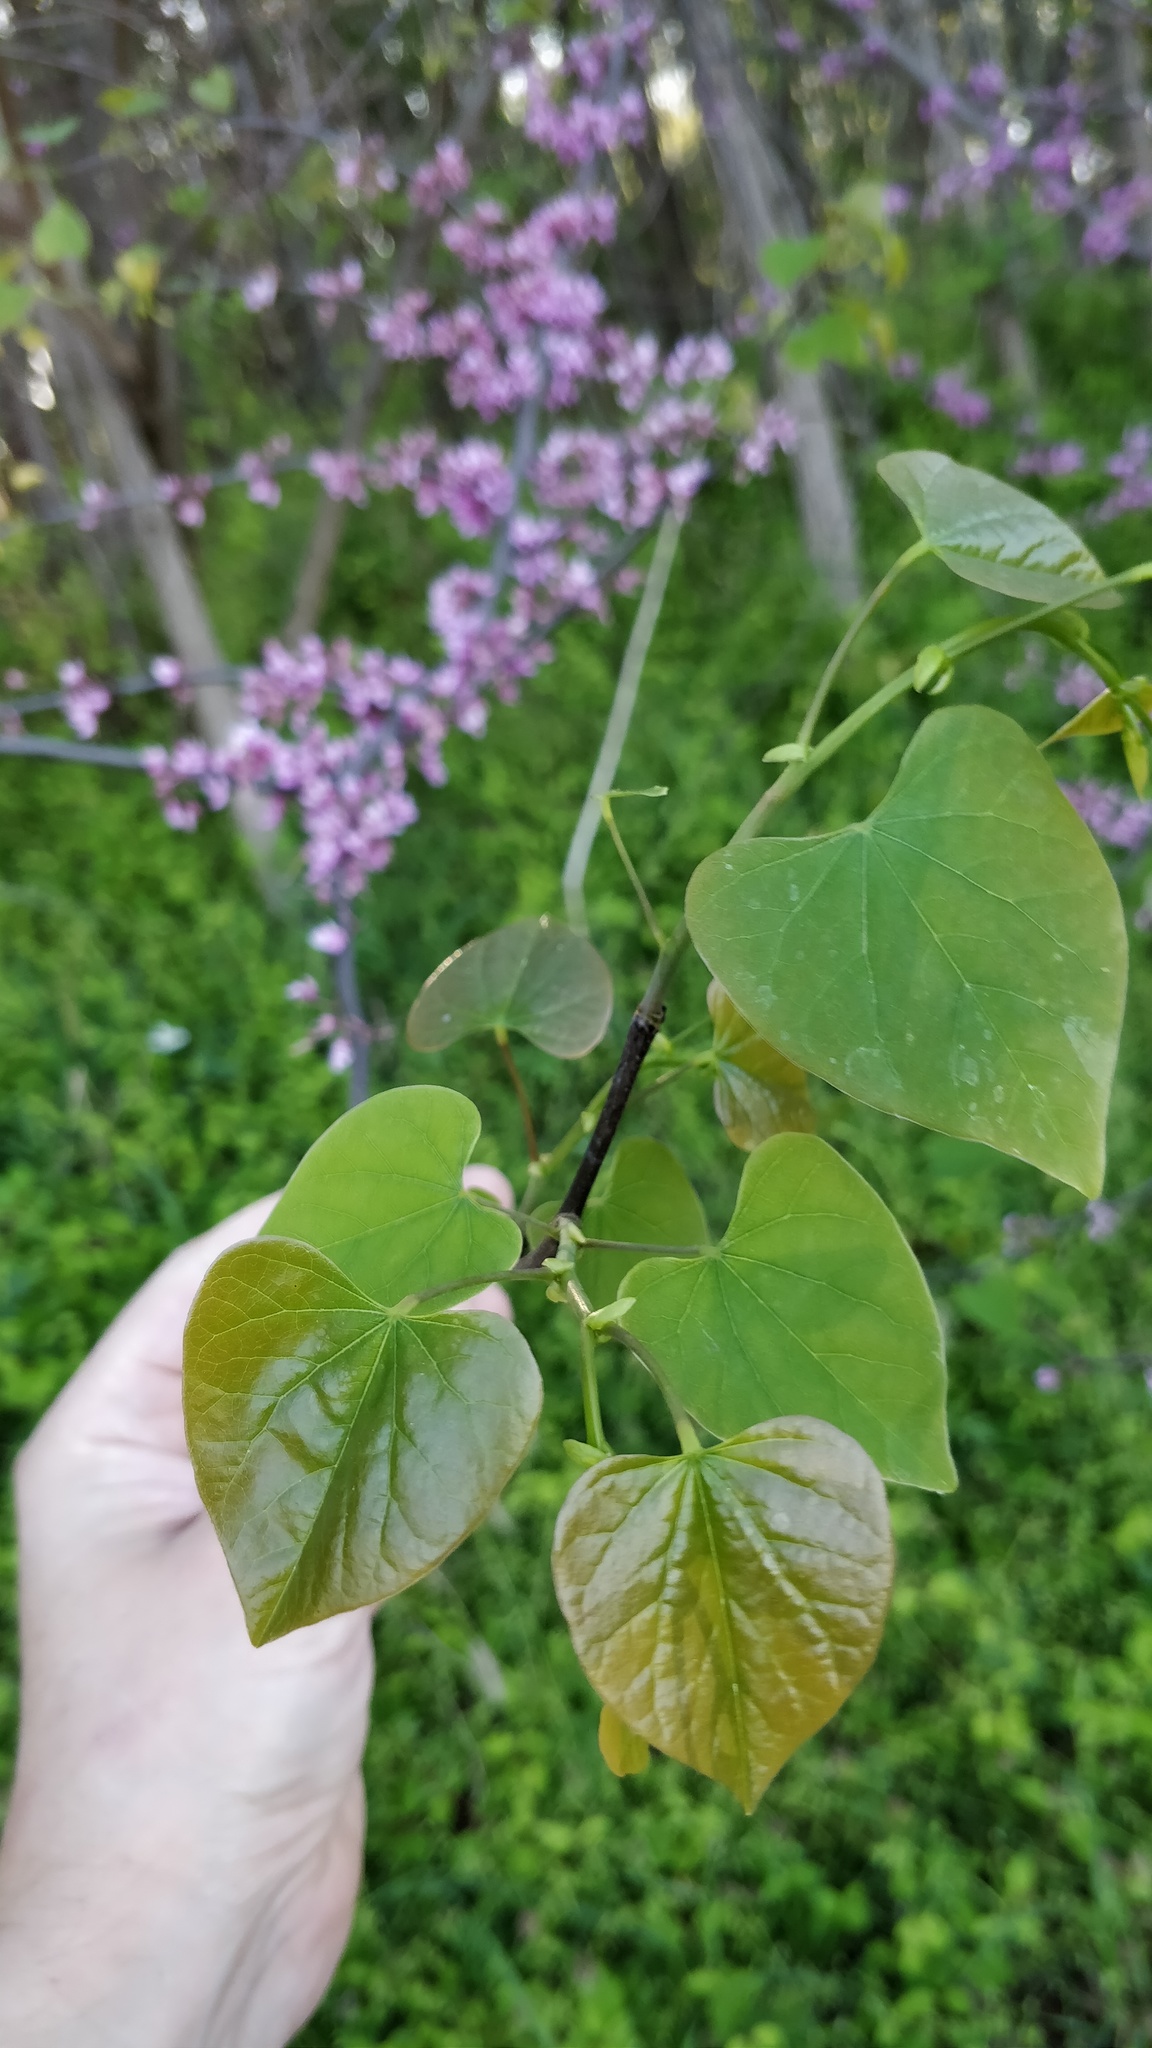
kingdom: Plantae
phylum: Tracheophyta
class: Magnoliopsida
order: Fabales
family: Fabaceae
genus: Cercis
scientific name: Cercis canadensis
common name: Eastern redbud
